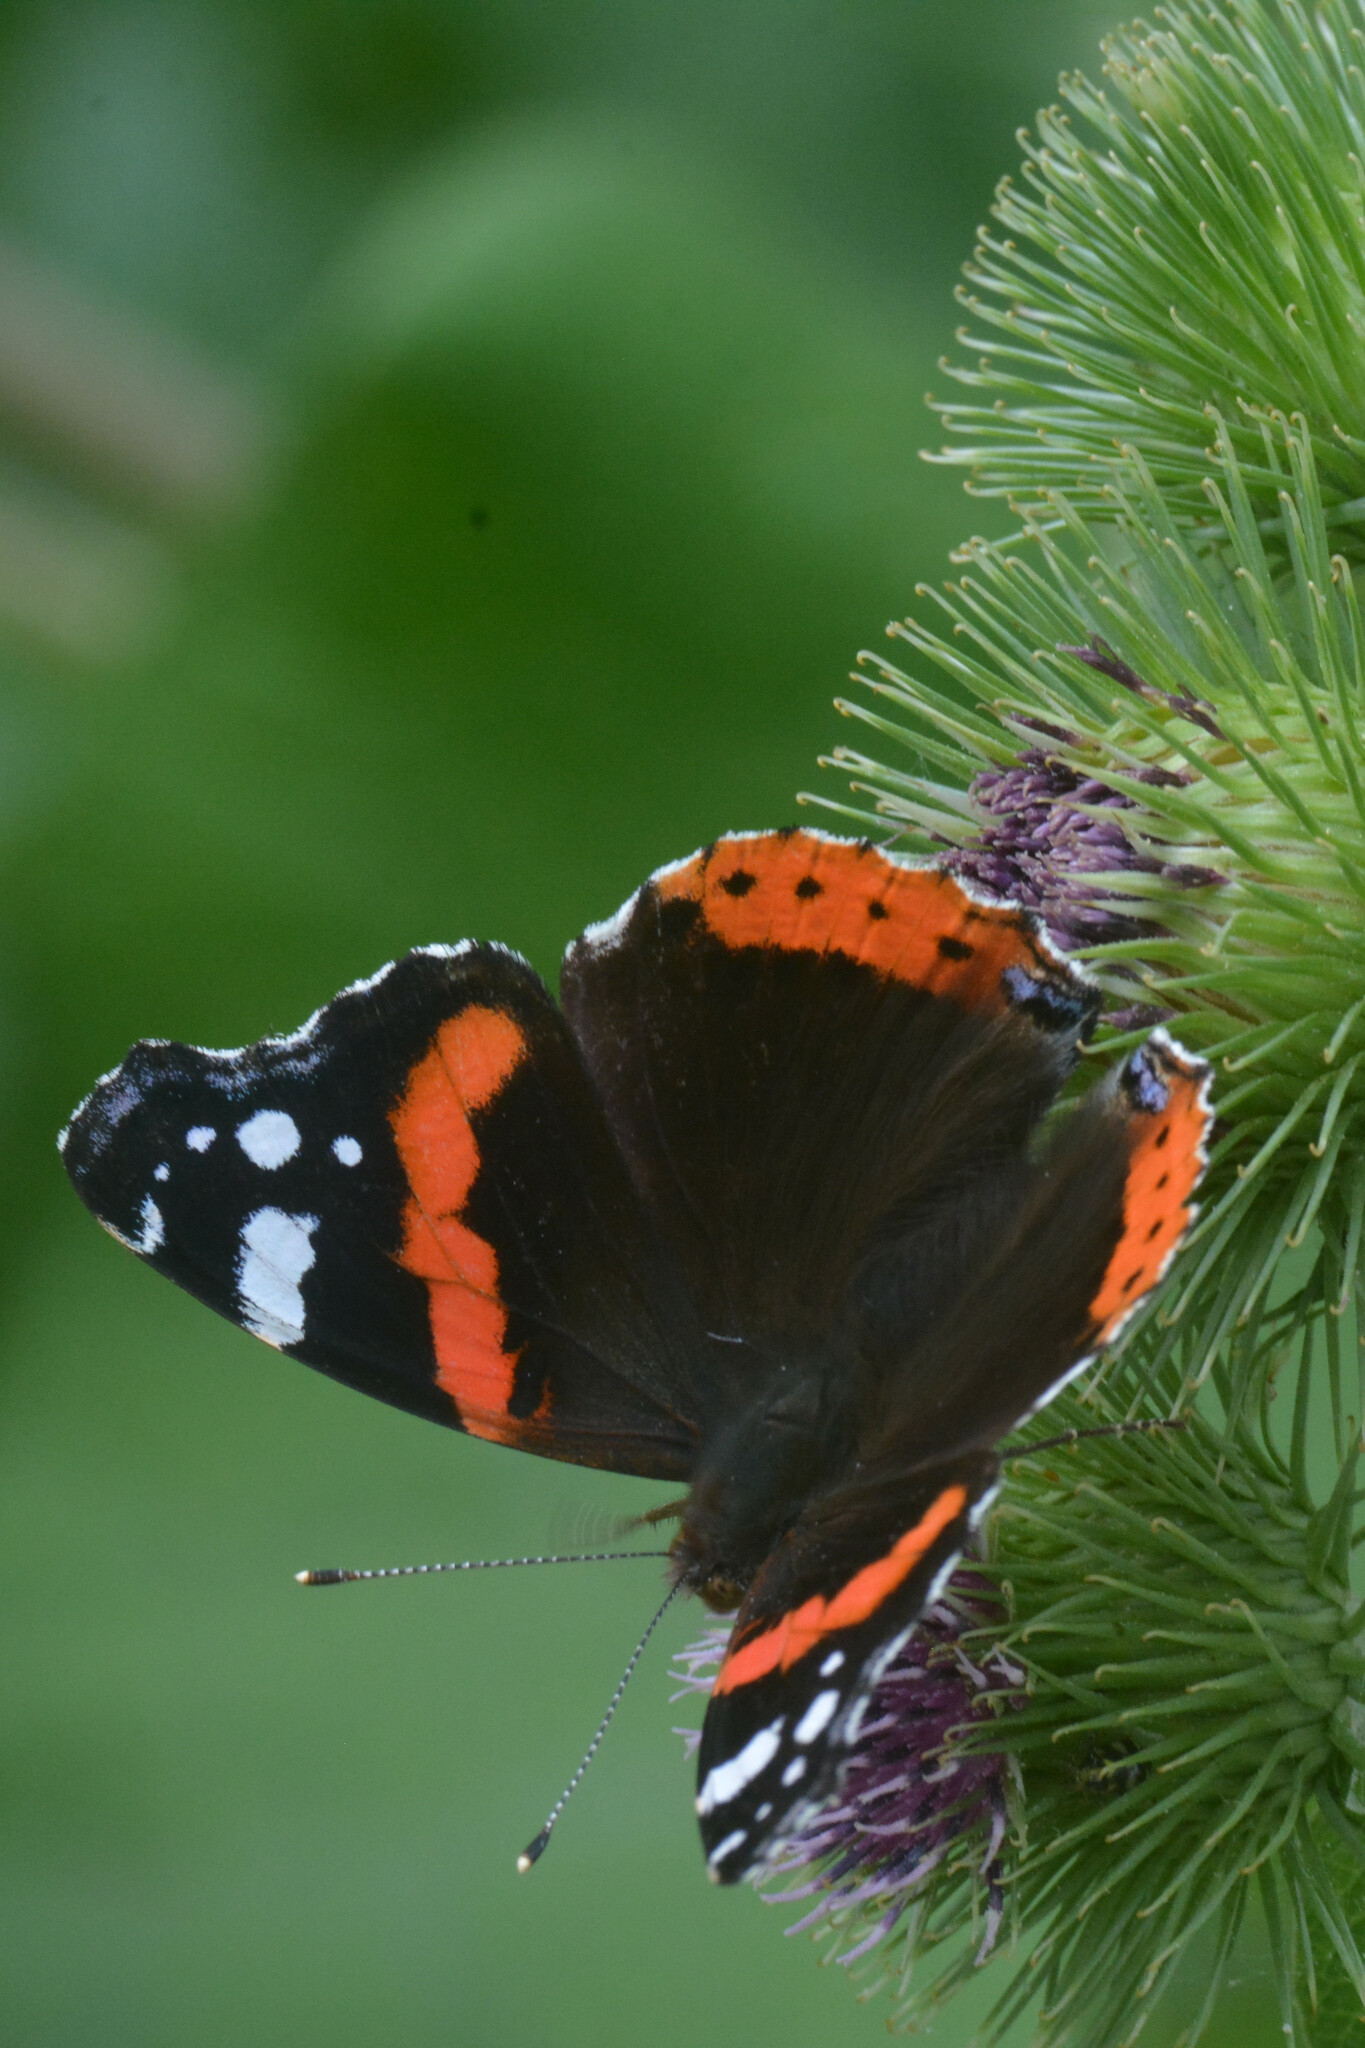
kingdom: Animalia
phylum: Arthropoda
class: Insecta
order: Lepidoptera
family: Nymphalidae
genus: Vanessa
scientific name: Vanessa atalanta
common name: Red admiral
